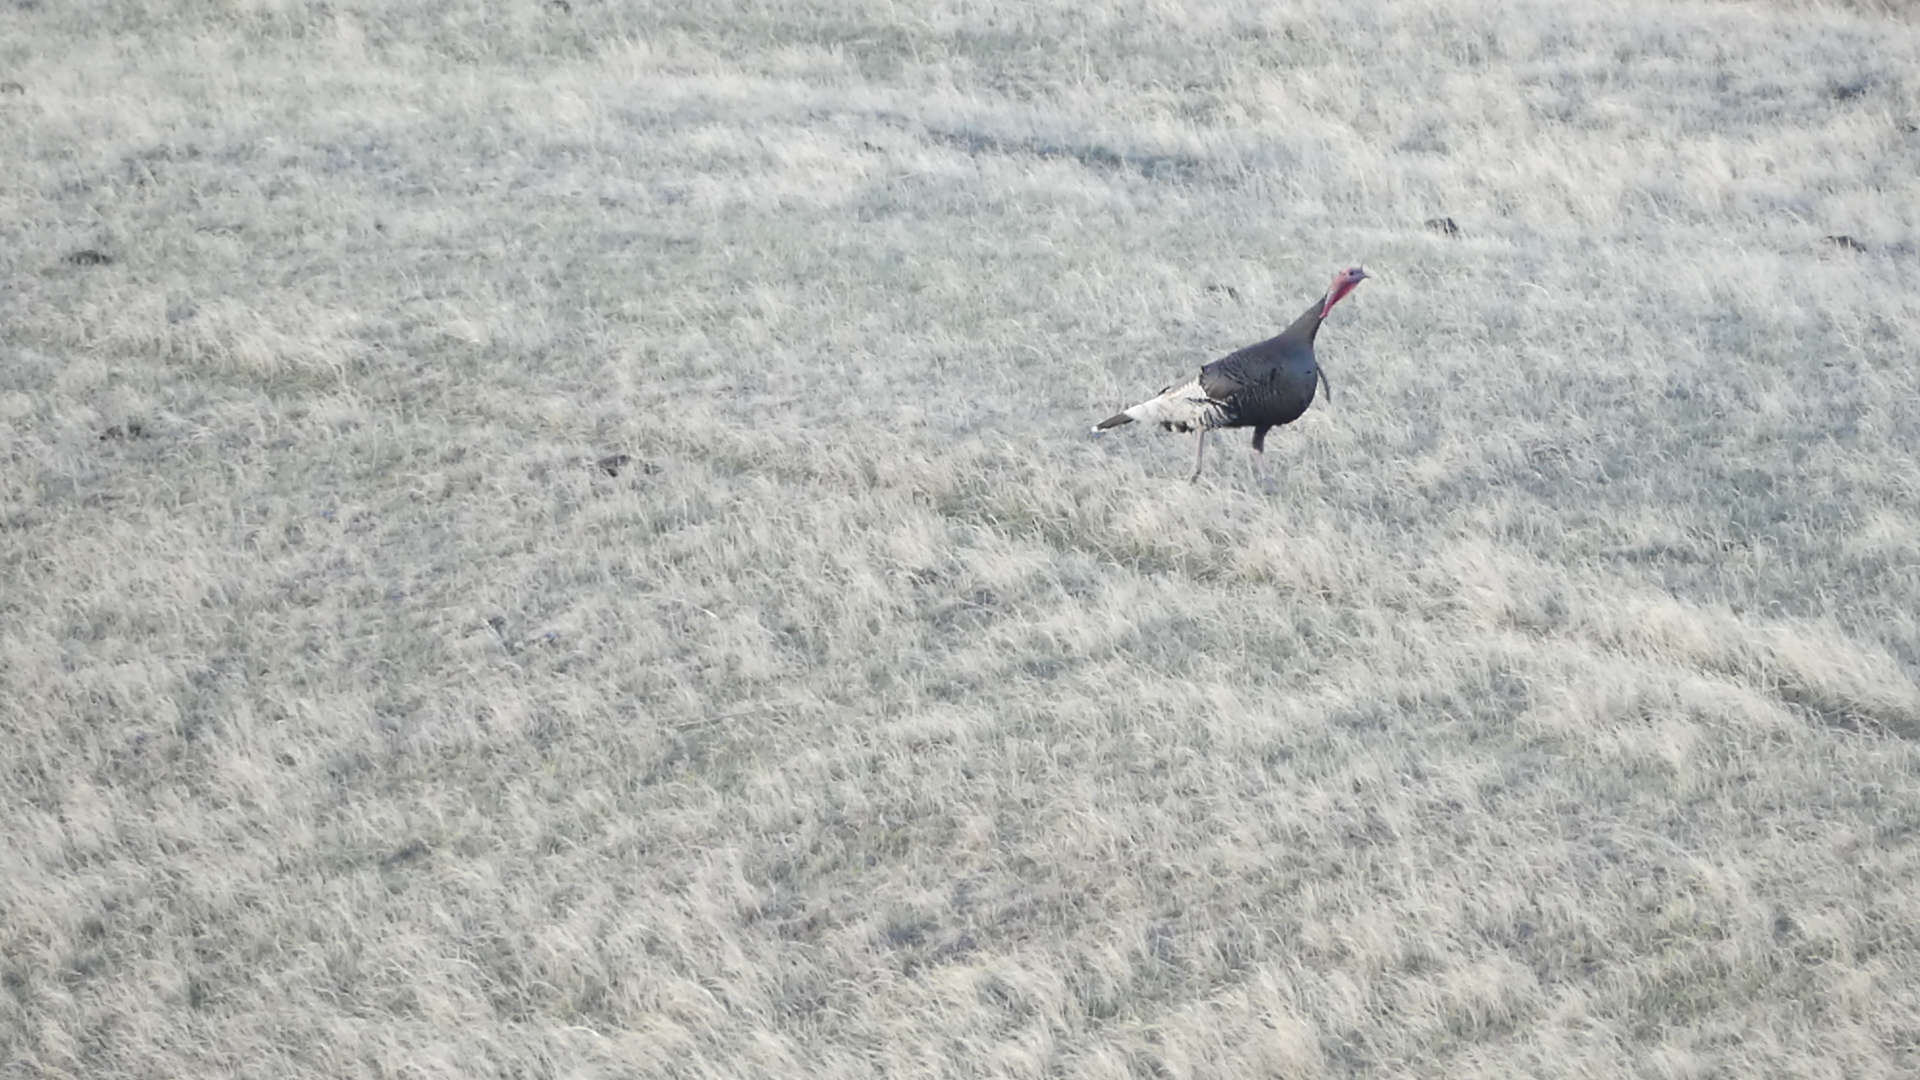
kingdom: Animalia
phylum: Chordata
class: Aves
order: Galliformes
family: Phasianidae
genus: Meleagris
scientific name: Meleagris gallopavo
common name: Wild turkey
